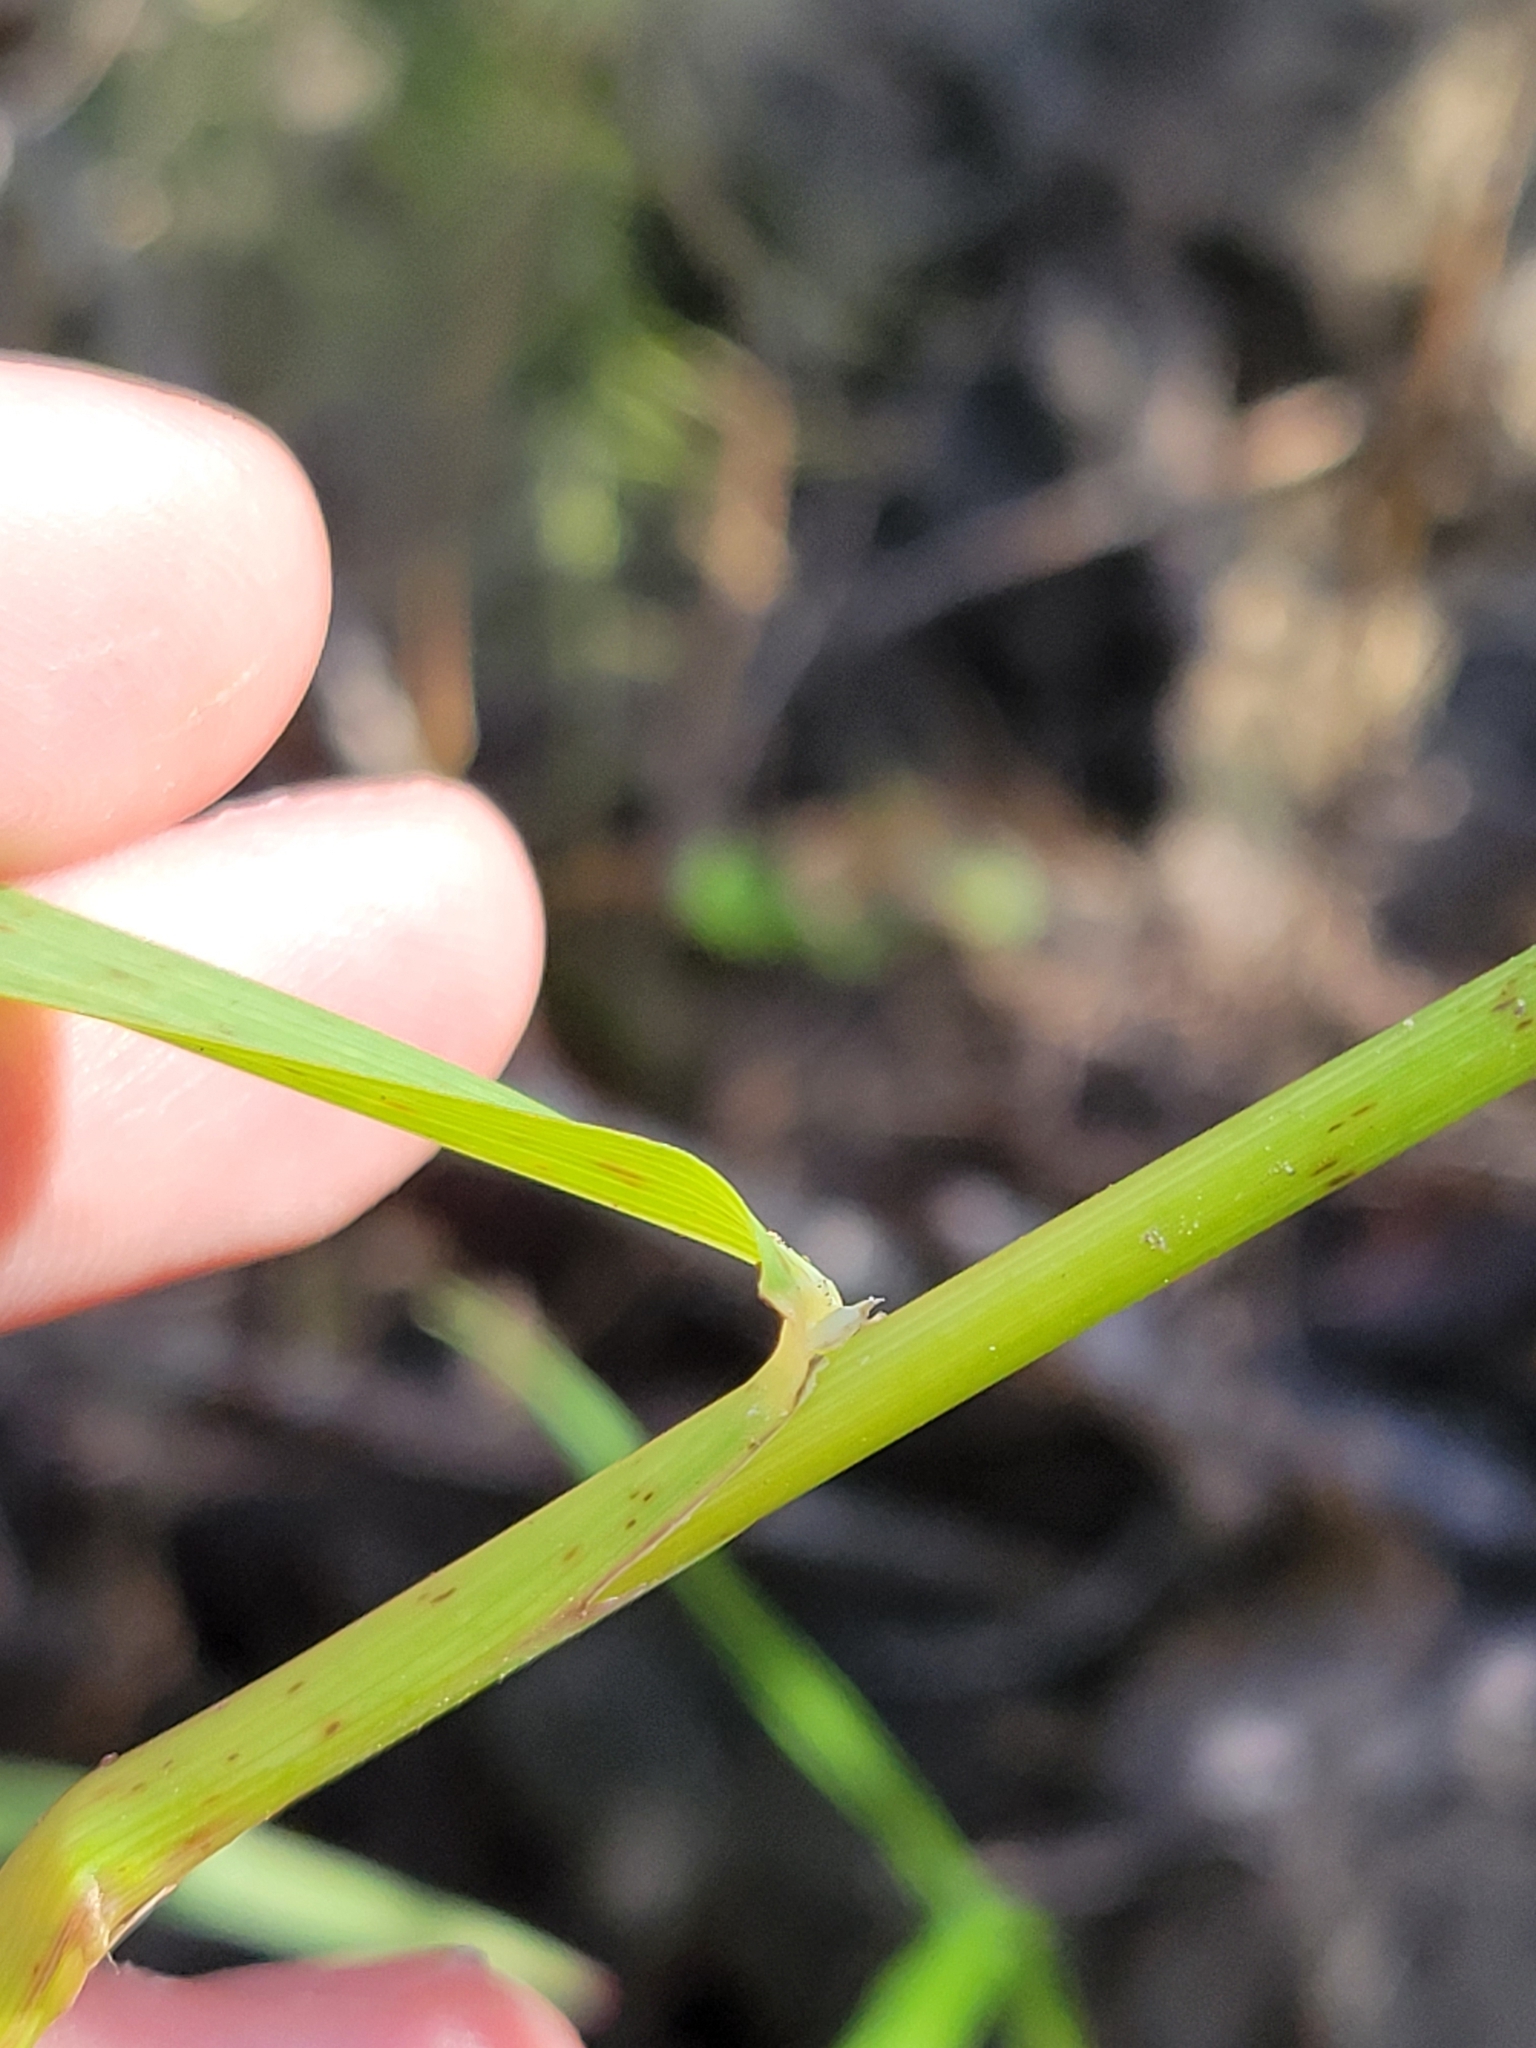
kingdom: Plantae
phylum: Tracheophyta
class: Liliopsida
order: Poales
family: Poaceae
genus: Bromus
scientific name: Bromus inermis
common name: Smooth brome
